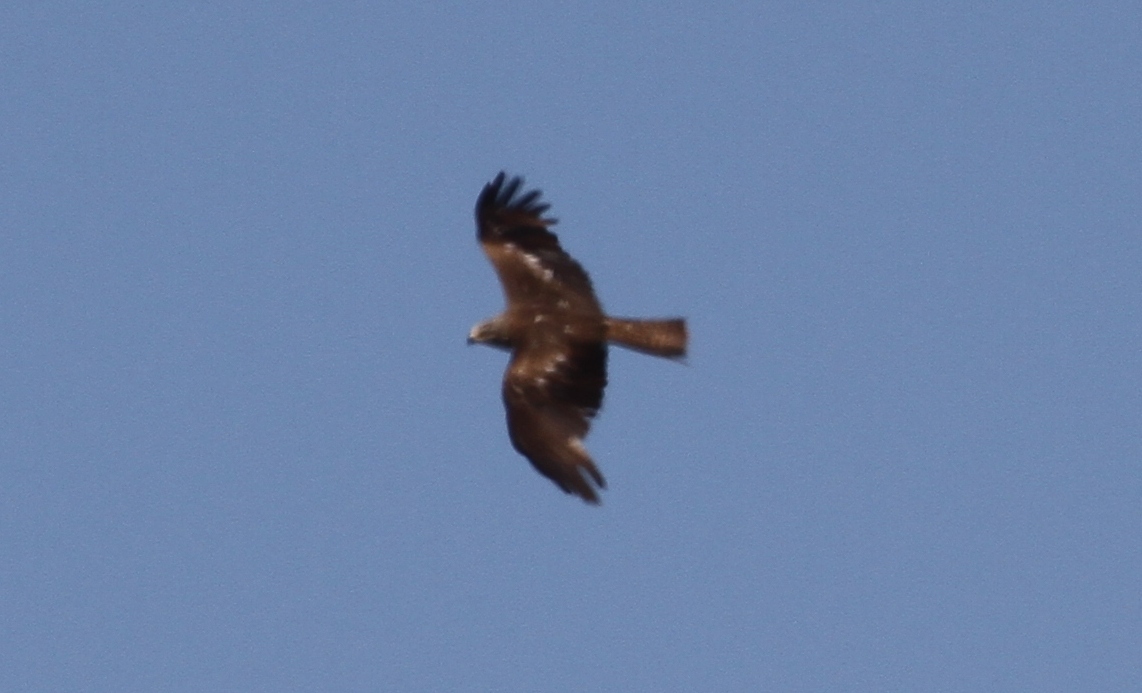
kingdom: Animalia
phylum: Chordata
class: Aves
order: Accipitriformes
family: Accipitridae
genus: Milvus
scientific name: Milvus migrans
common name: Black kite
